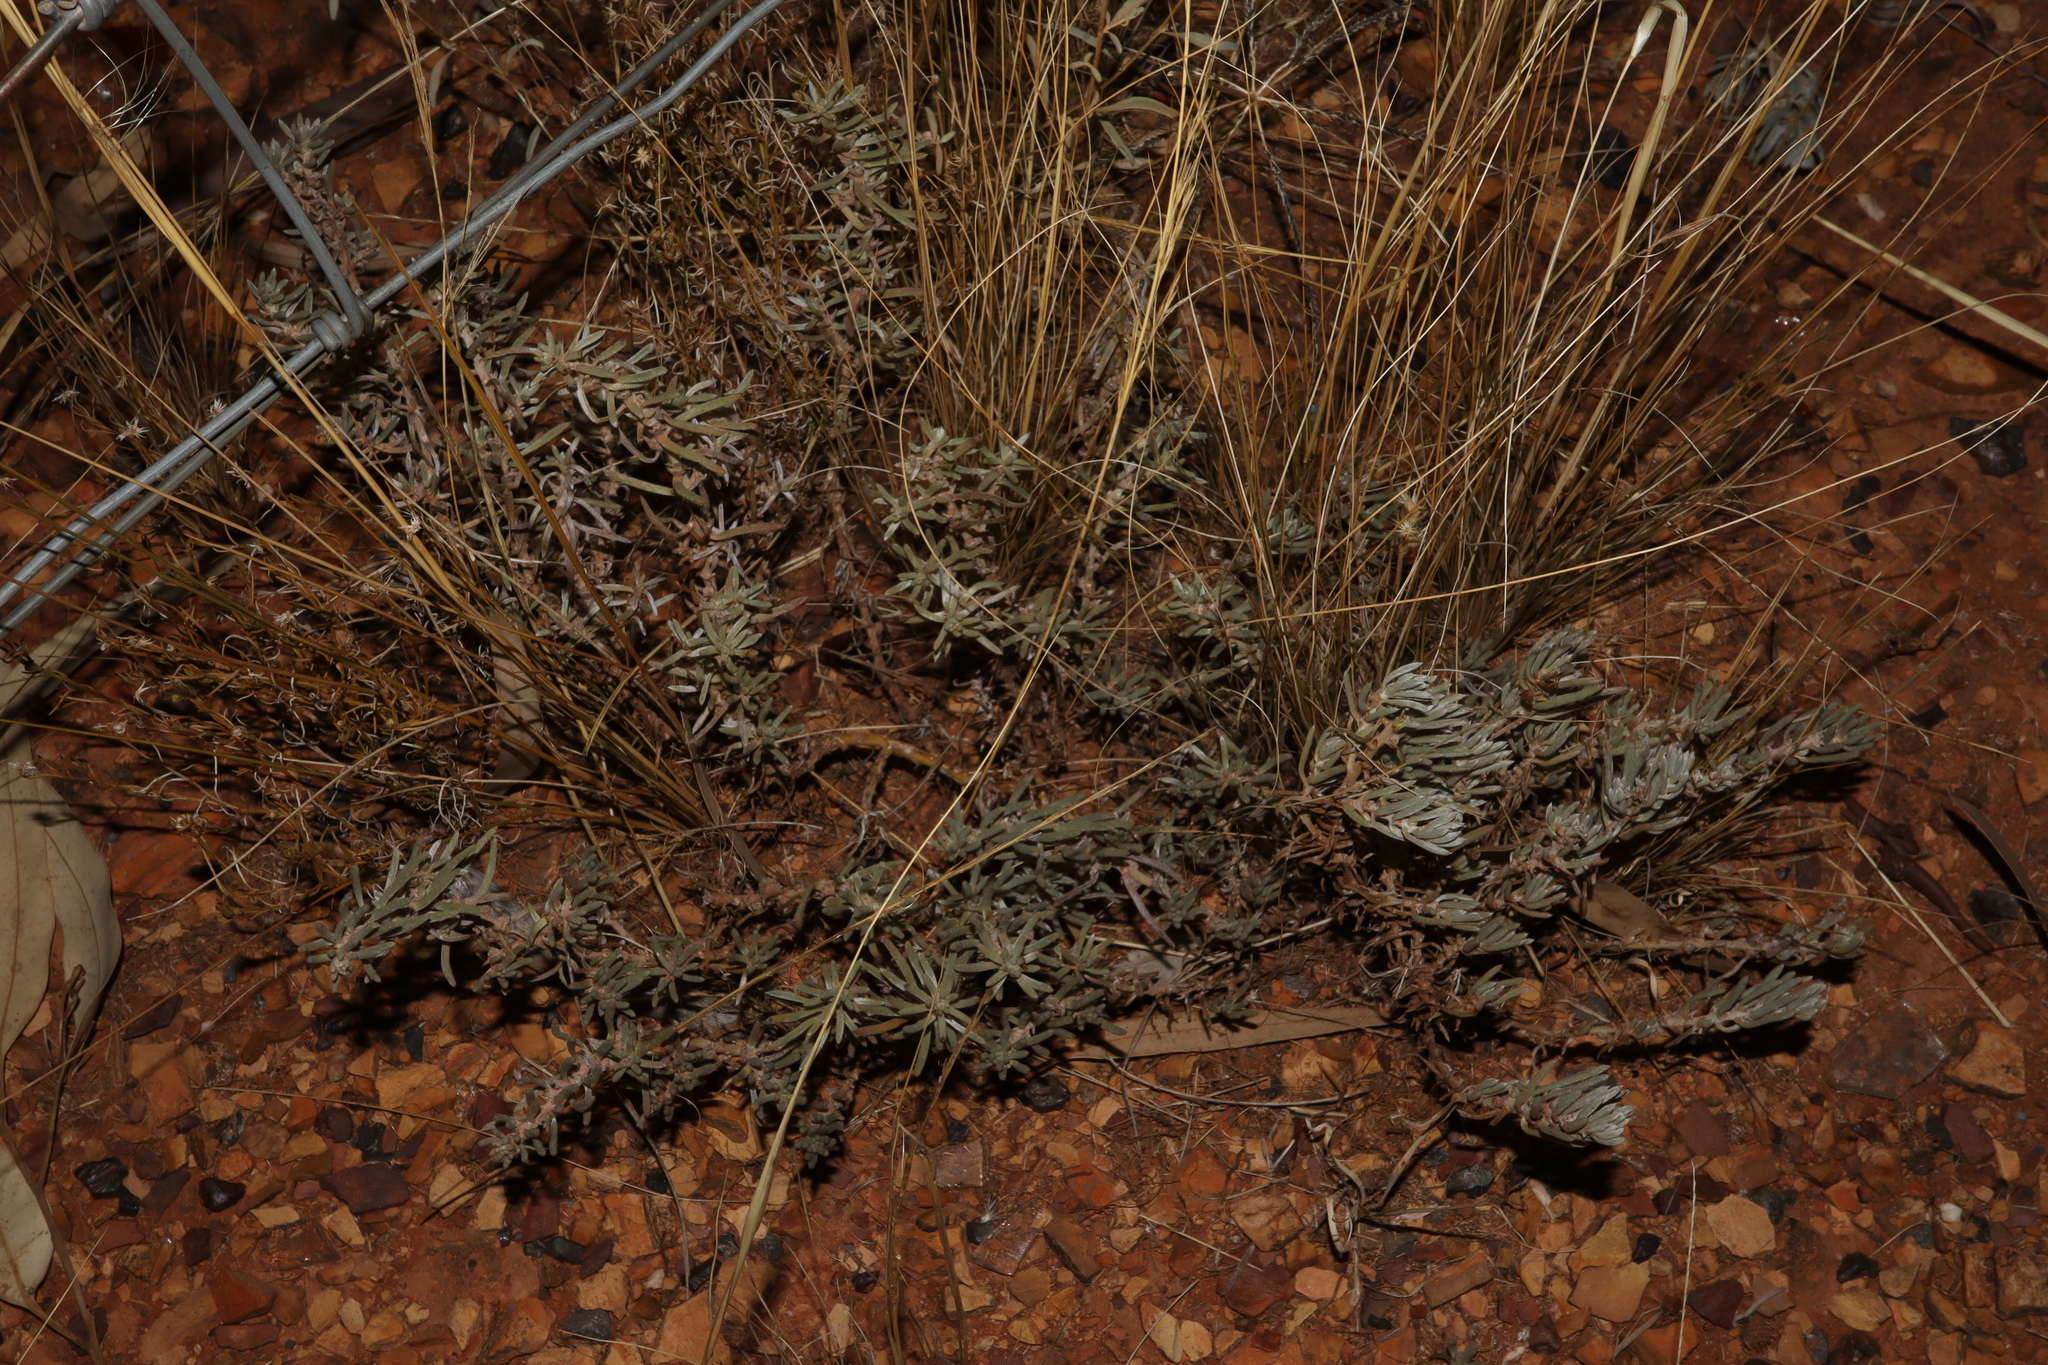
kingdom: Plantae
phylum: Tracheophyta
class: Magnoliopsida
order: Caryophyllales
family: Amaranthaceae
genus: Sclerolaena
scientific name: Sclerolaena diacantha
